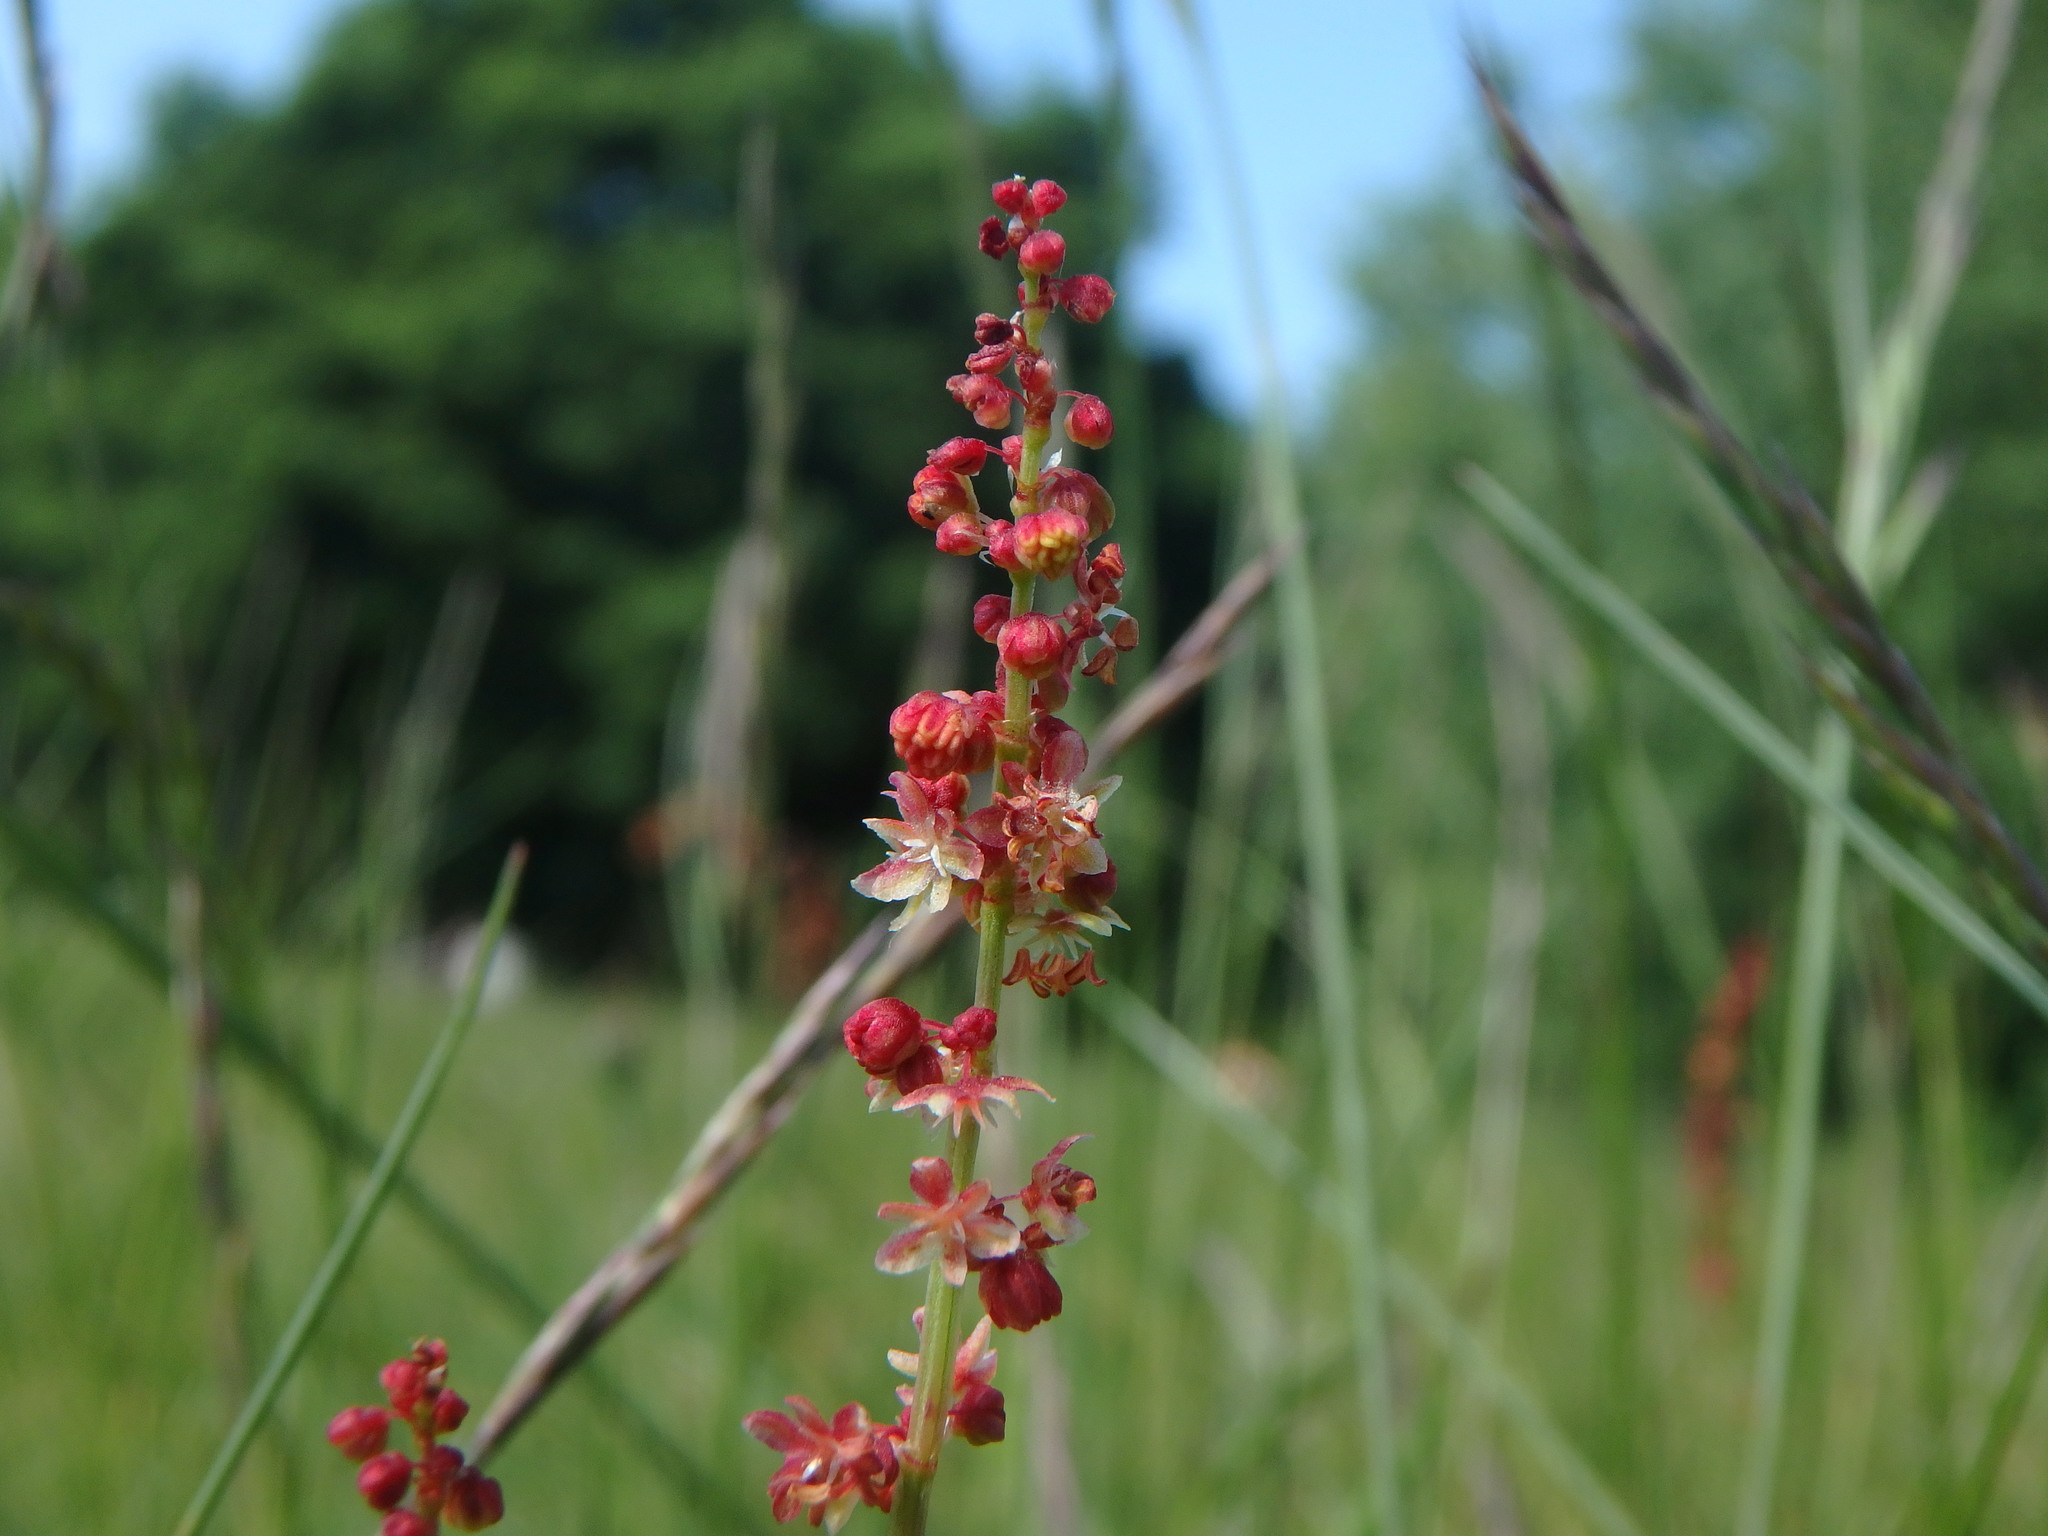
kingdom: Plantae
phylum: Tracheophyta
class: Magnoliopsida
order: Caryophyllales
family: Polygonaceae
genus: Rumex
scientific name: Rumex acetosella
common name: Common sheep sorrel
